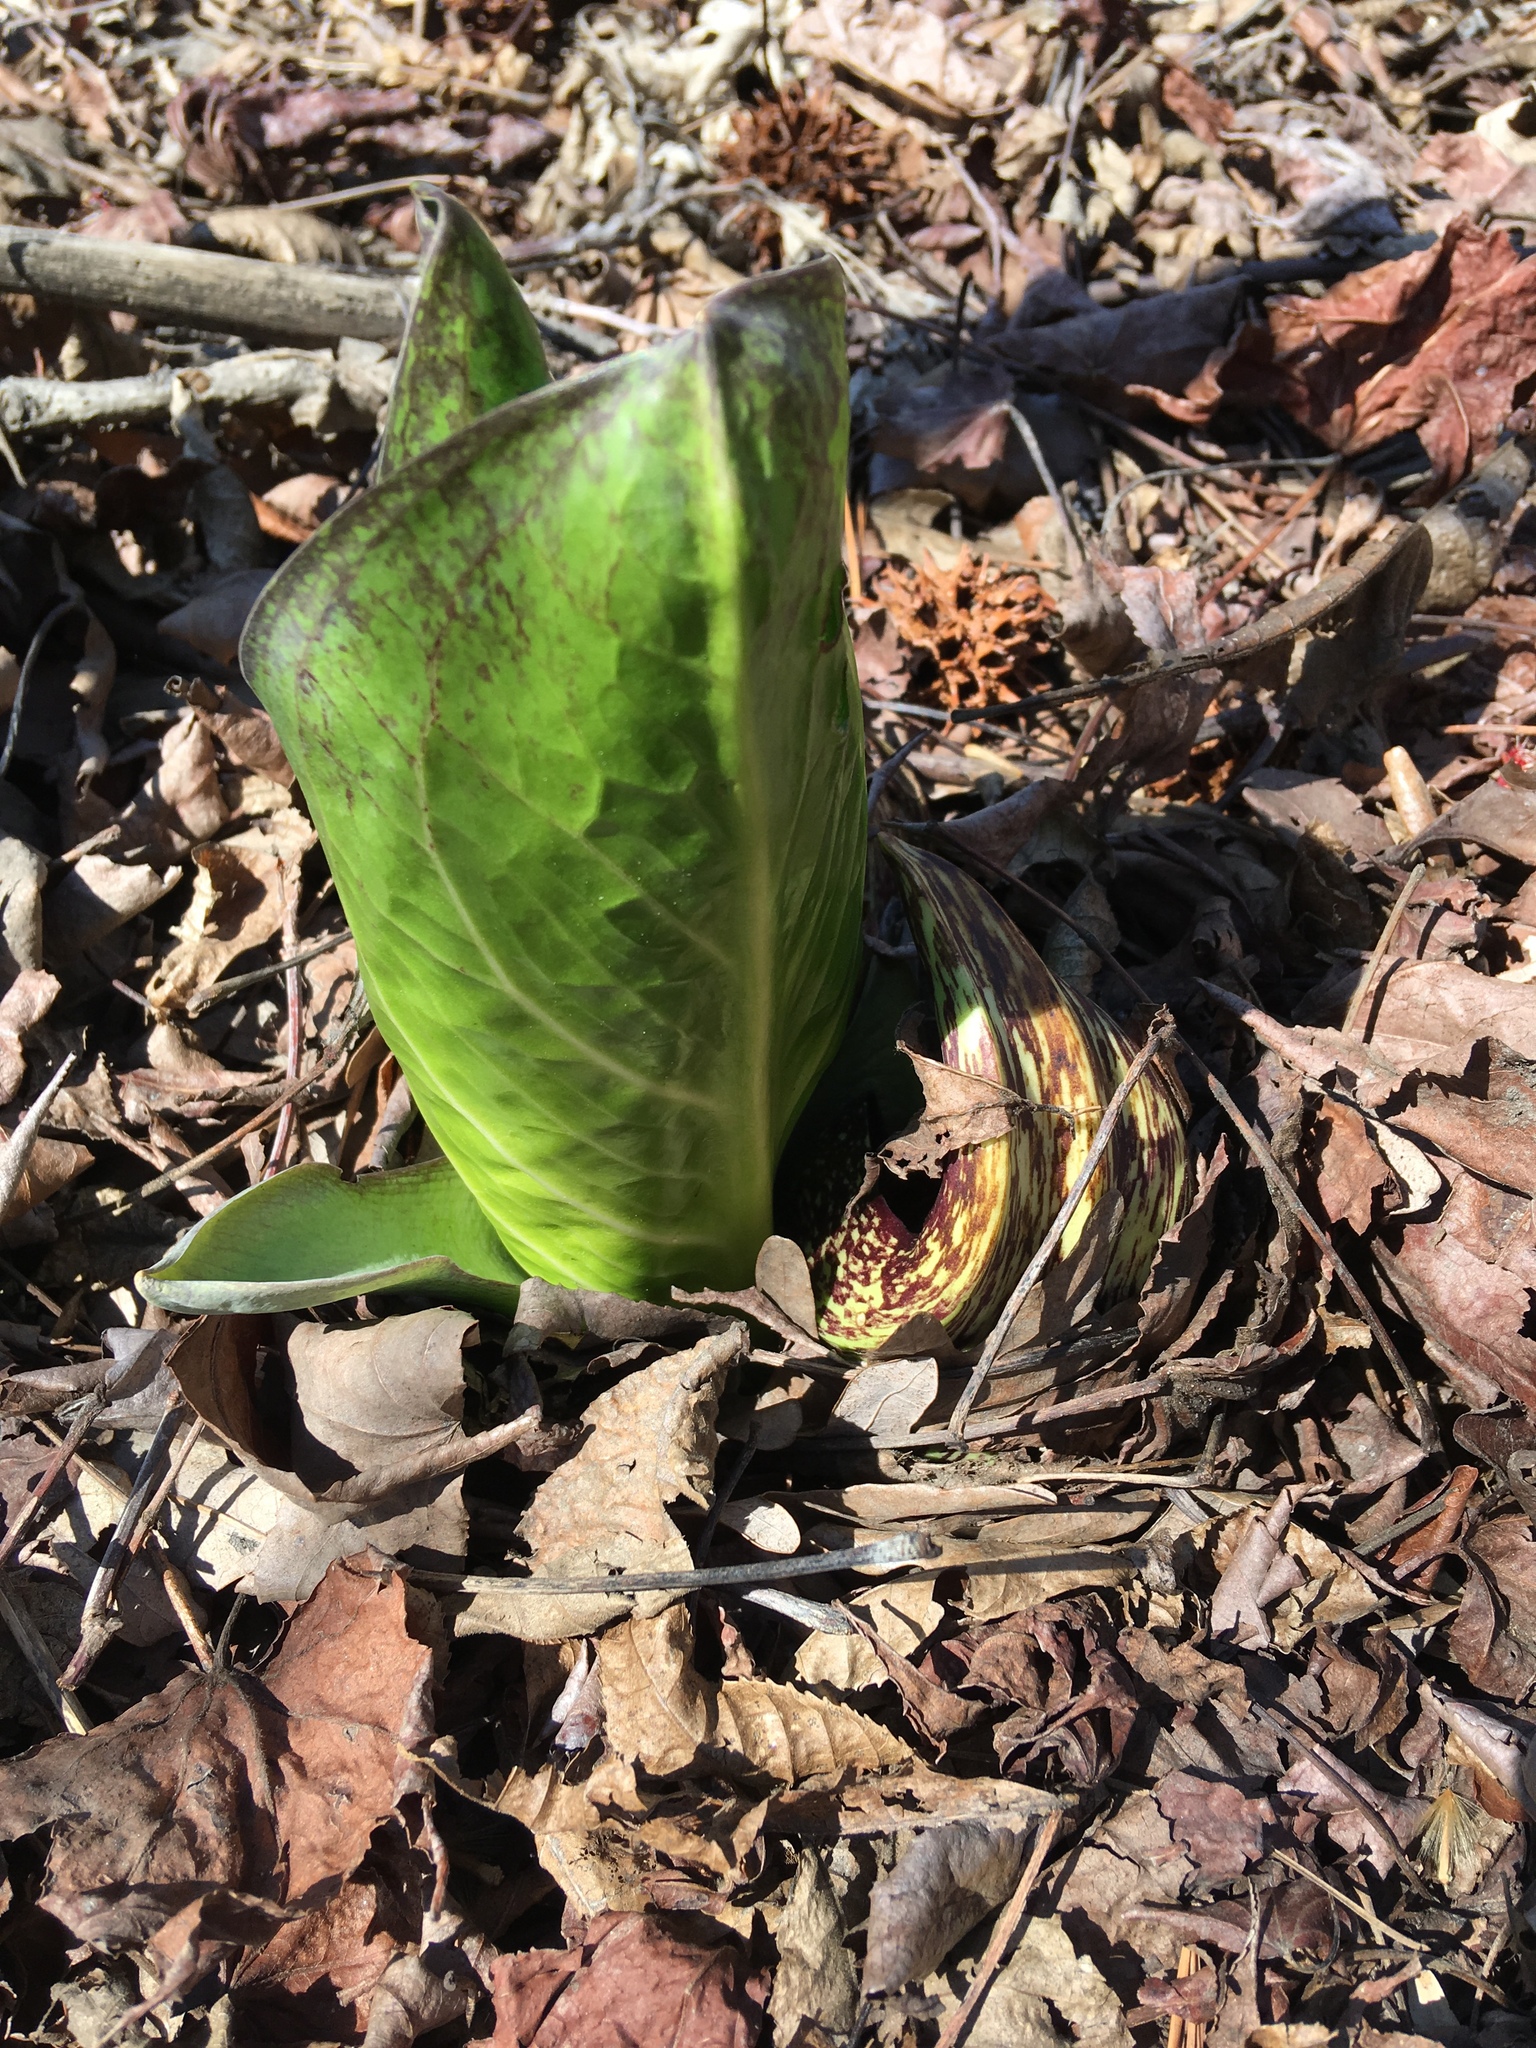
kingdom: Plantae
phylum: Tracheophyta
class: Liliopsida
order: Alismatales
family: Araceae
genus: Symplocarpus
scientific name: Symplocarpus foetidus
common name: Eastern skunk cabbage
